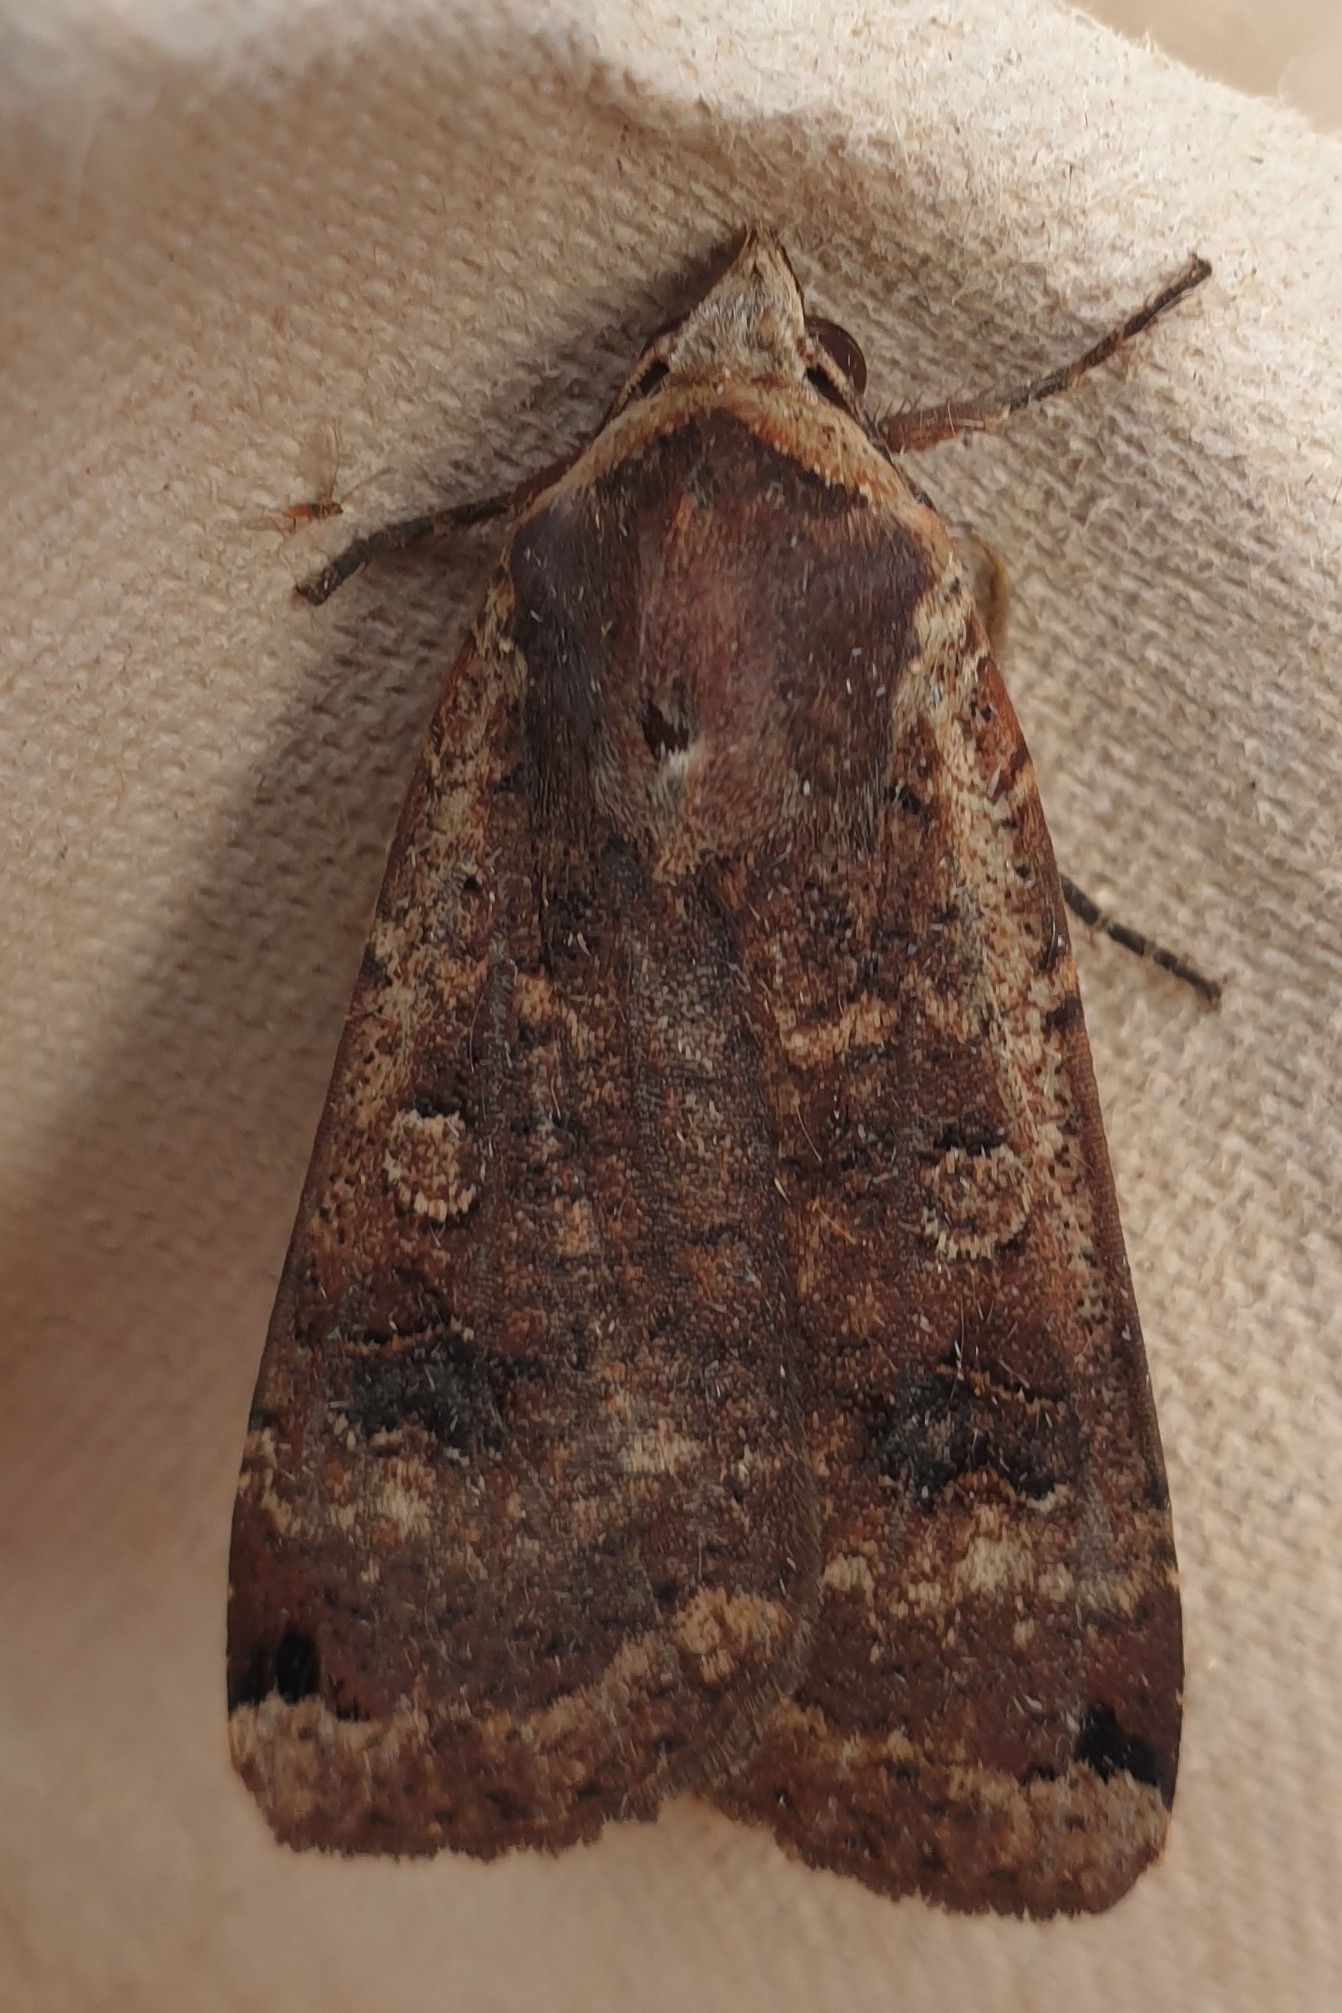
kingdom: Animalia
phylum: Arthropoda
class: Insecta
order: Lepidoptera
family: Noctuidae
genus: Noctua
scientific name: Noctua pronuba
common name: Large yellow underwing
